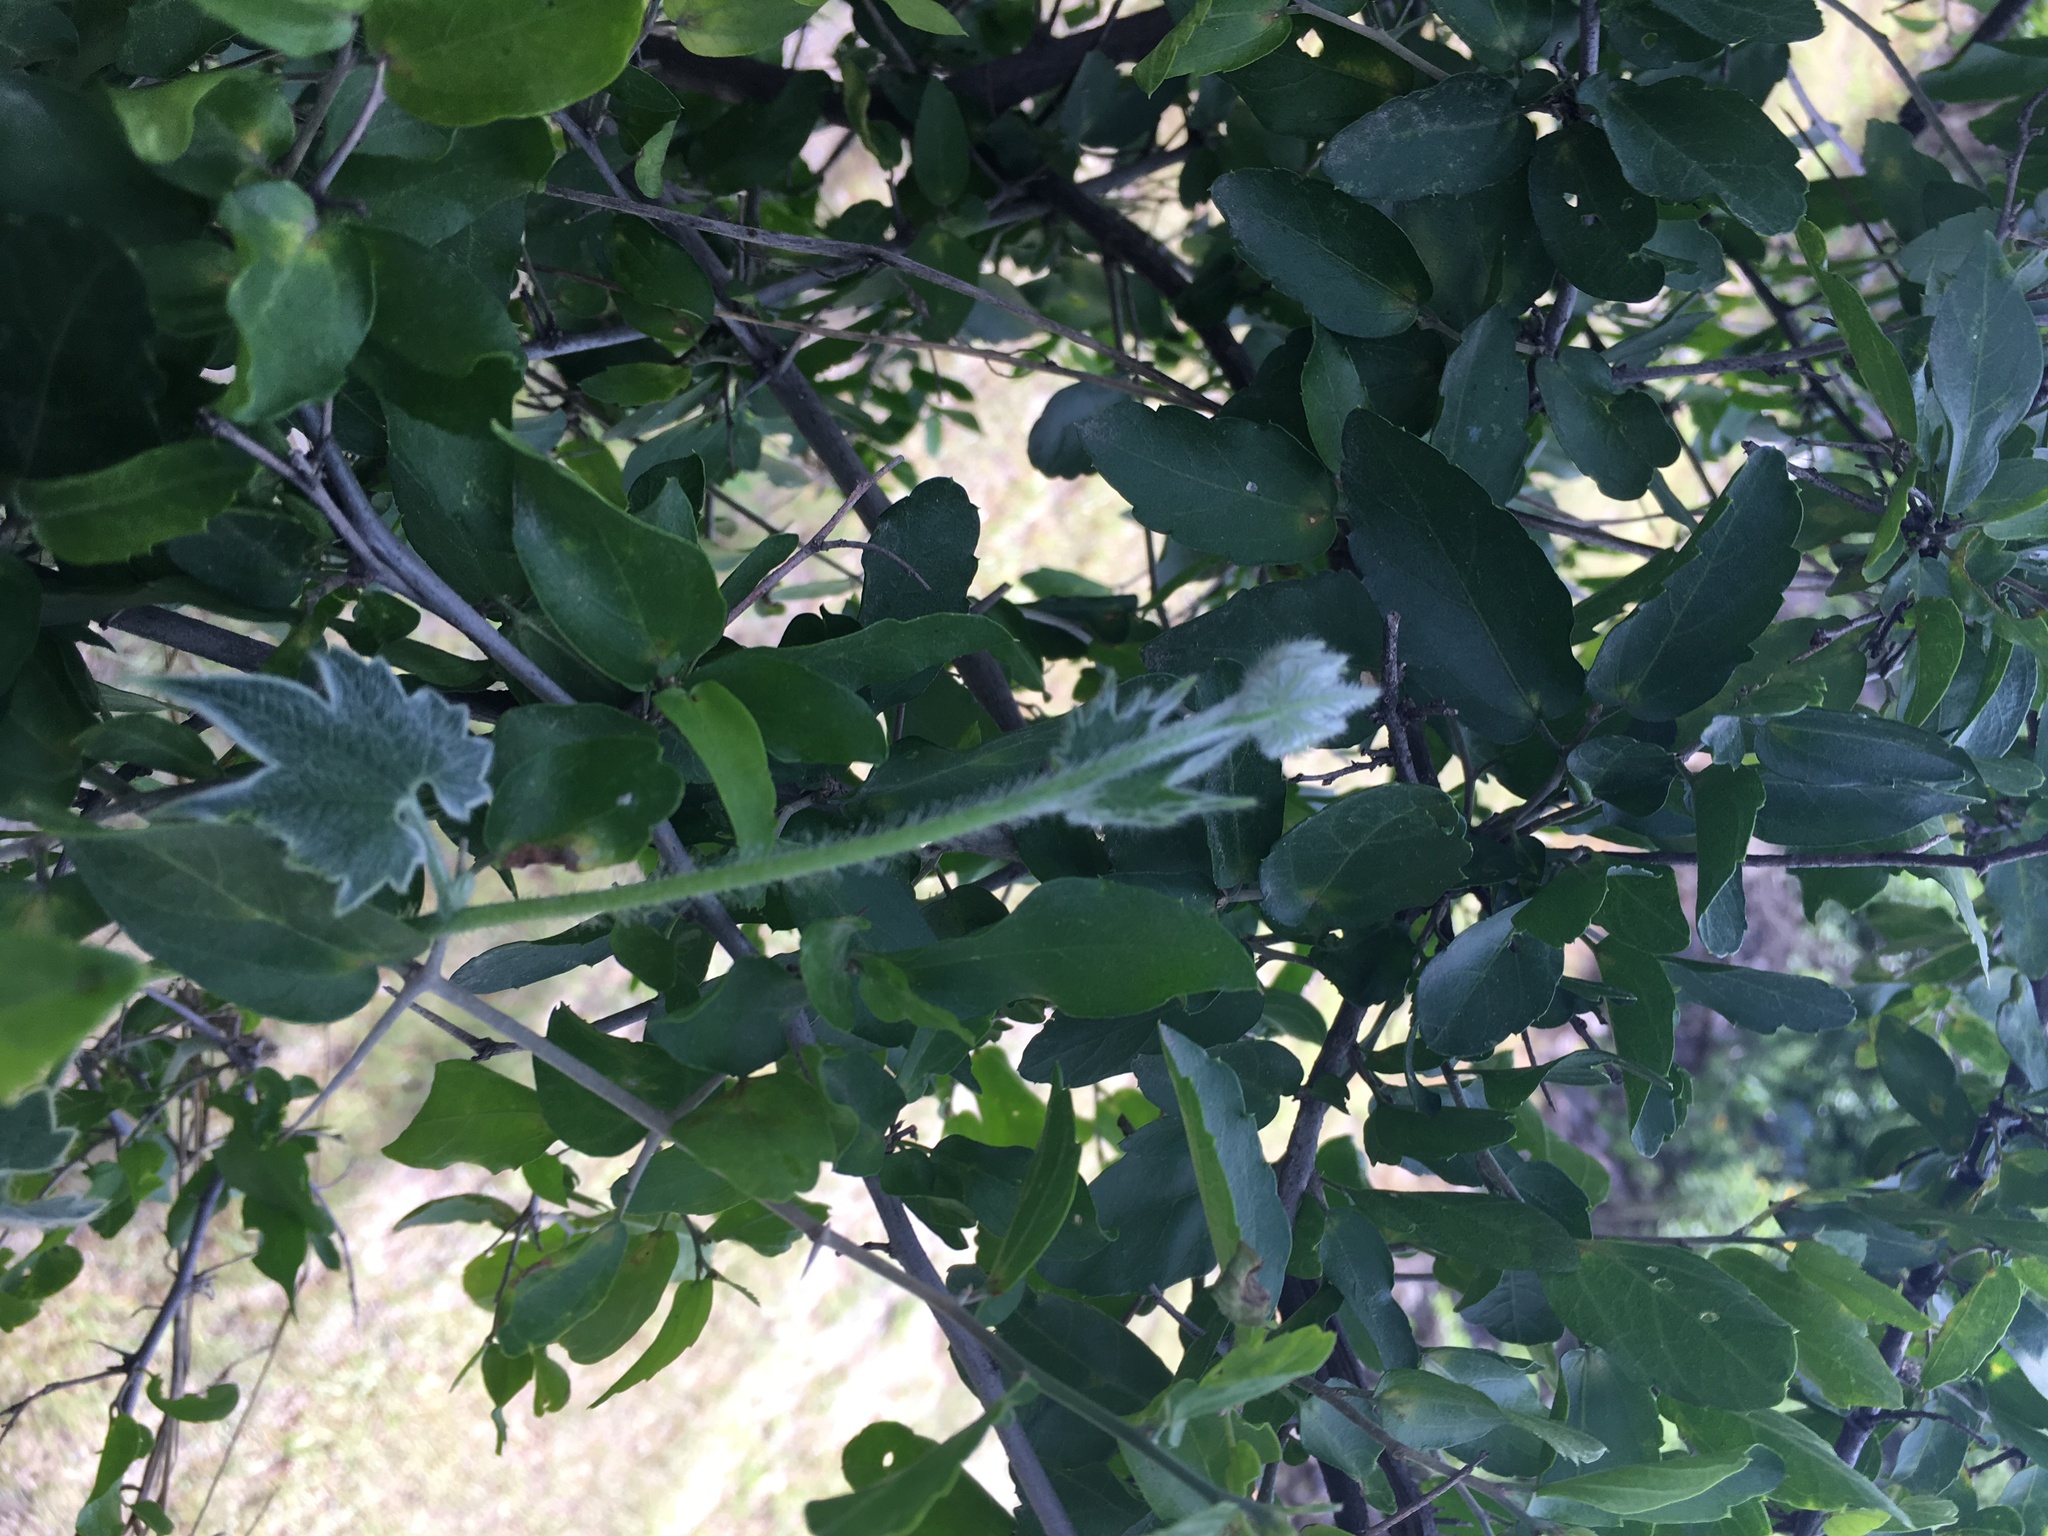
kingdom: Plantae
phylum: Tracheophyta
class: Magnoliopsida
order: Rosales
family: Cannabaceae
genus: Celtis
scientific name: Celtis pallida
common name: Desert hackberry
